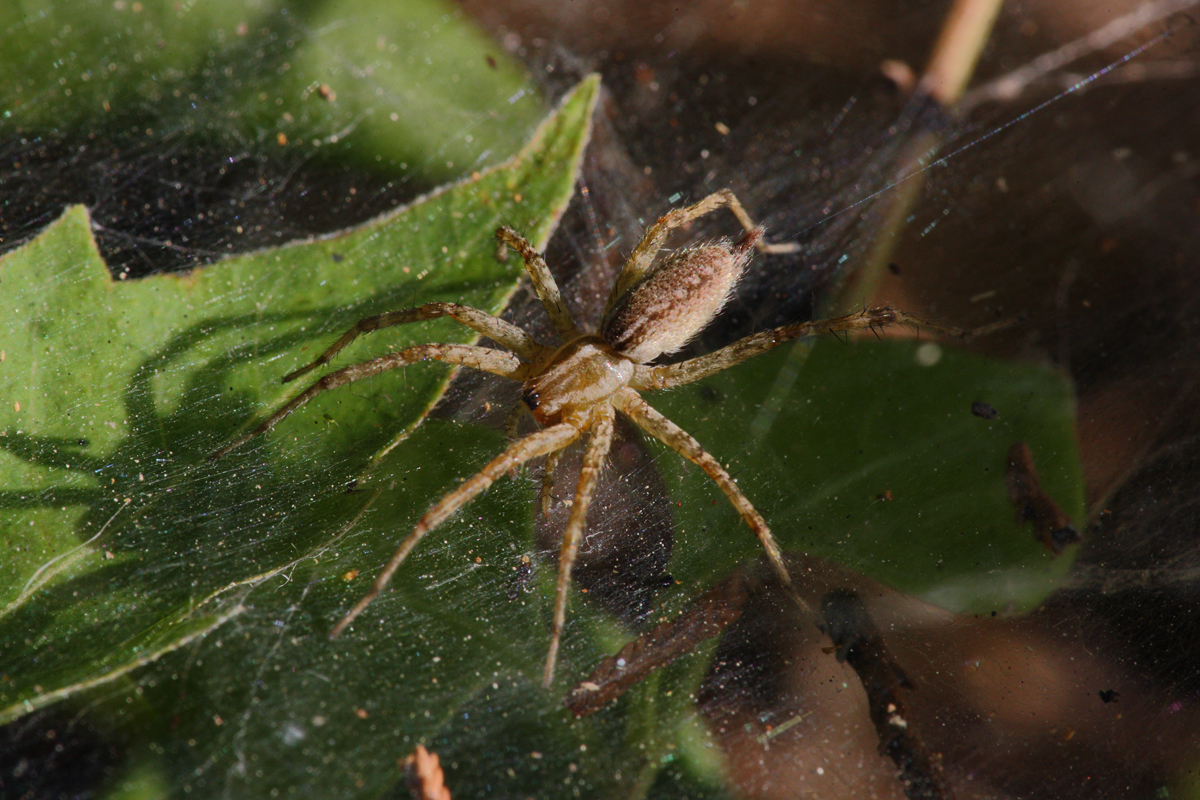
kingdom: Animalia
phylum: Arthropoda
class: Arachnida
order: Araneae
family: Agelenidae
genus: Agelenopsis
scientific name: Agelenopsis
